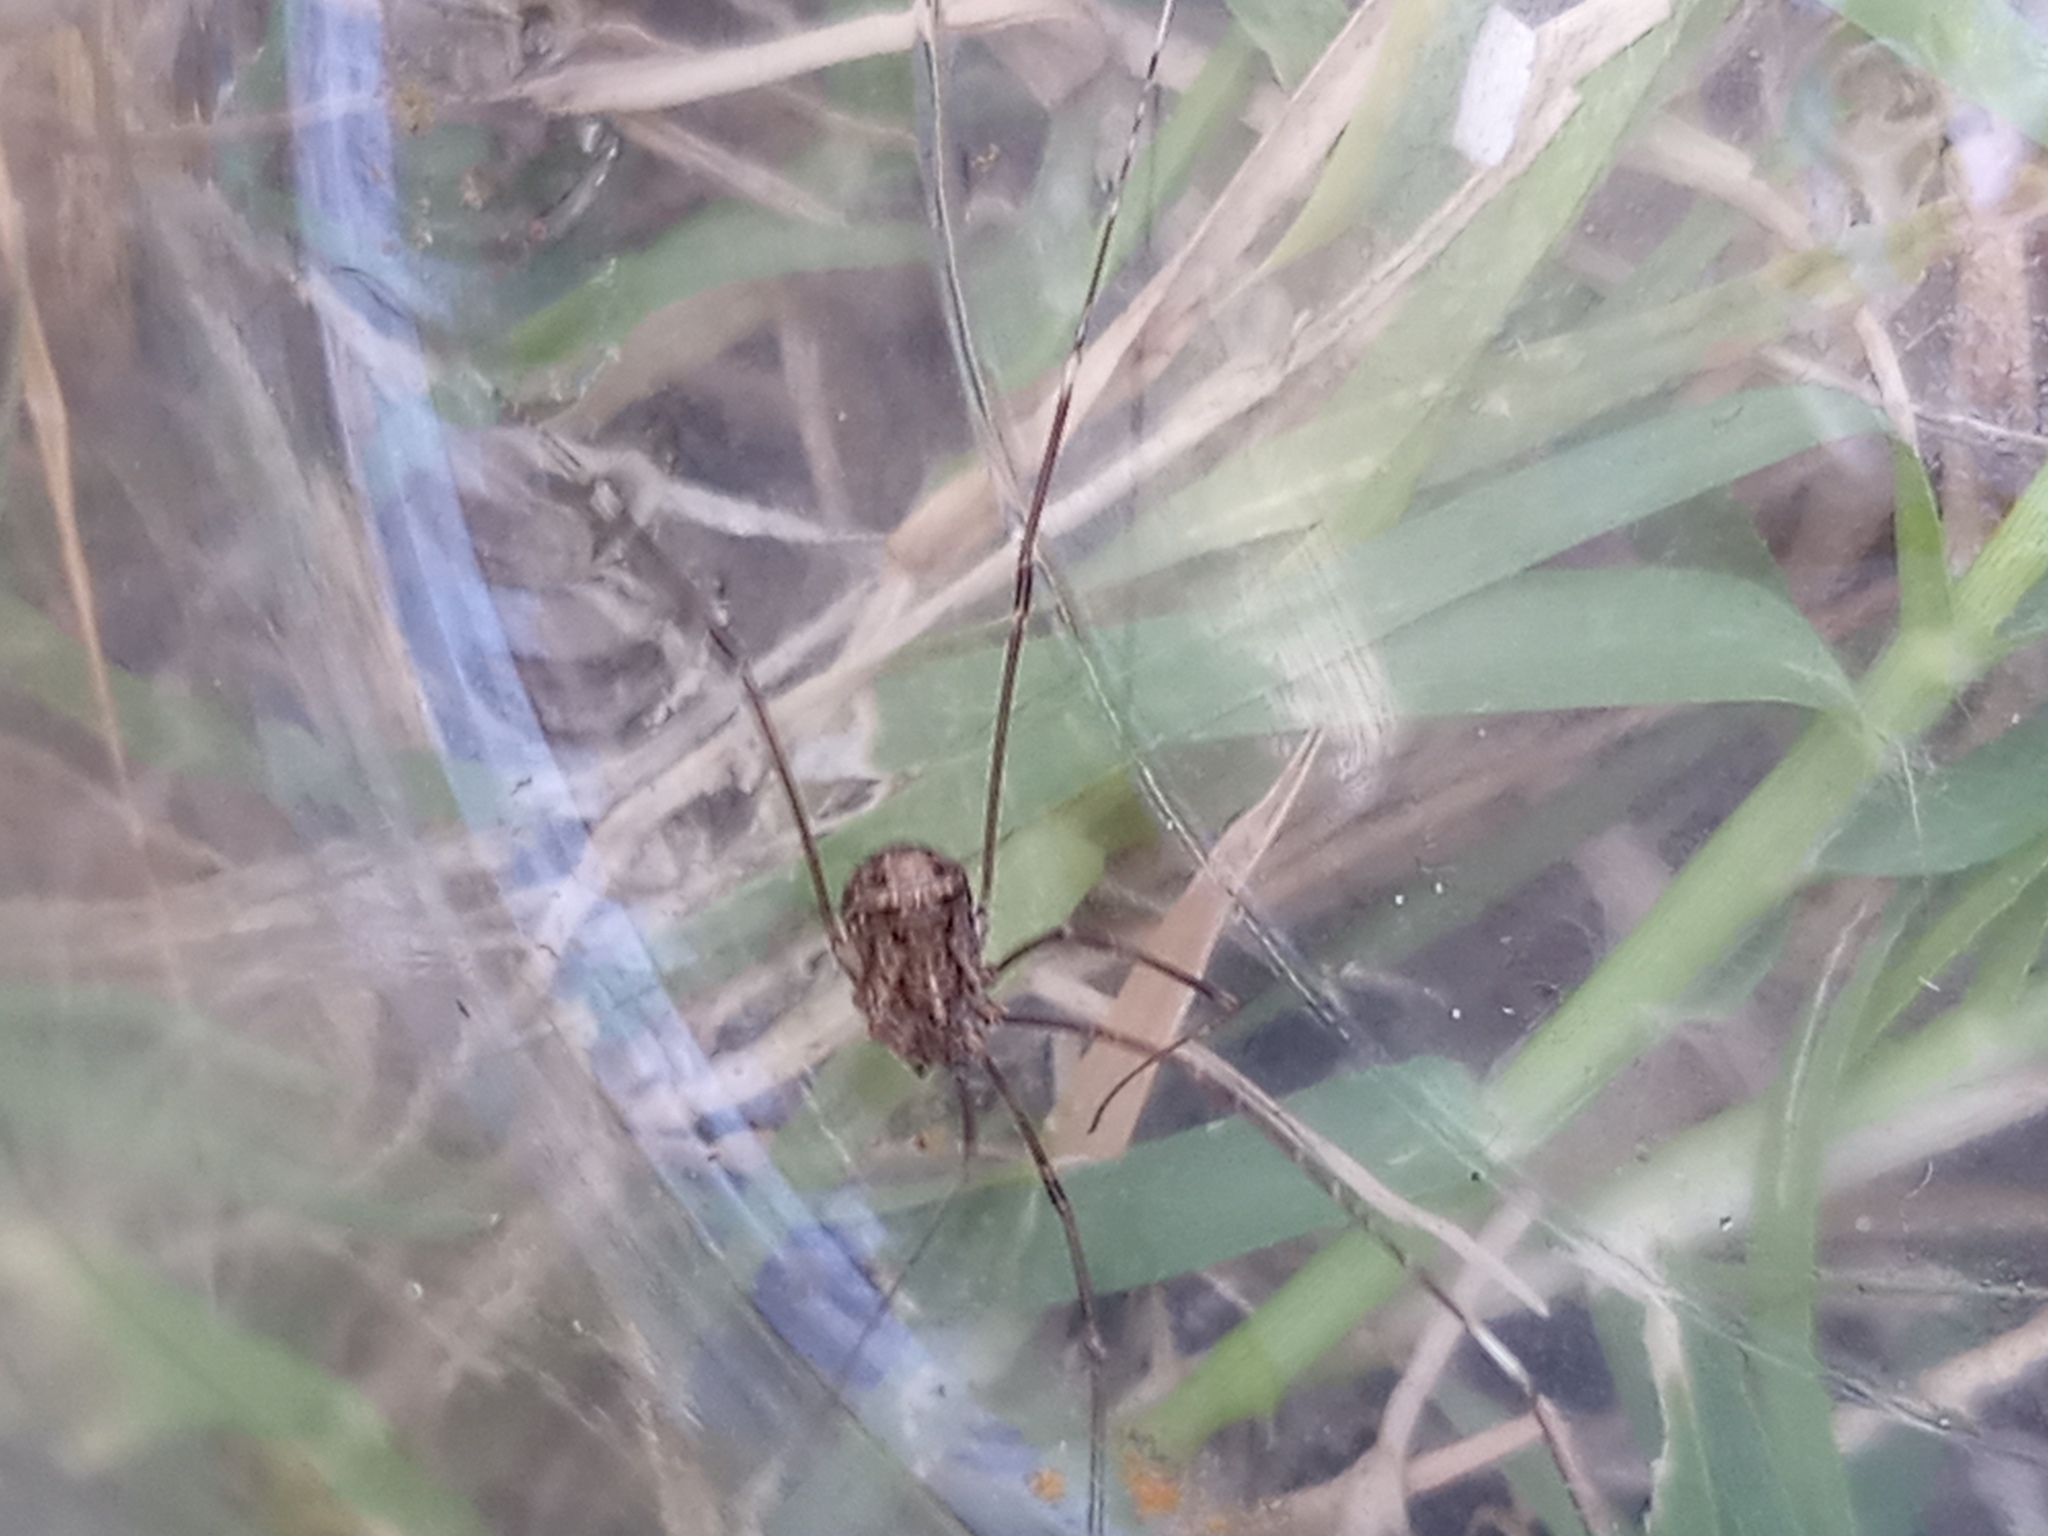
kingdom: Animalia
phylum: Arthropoda
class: Arachnida
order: Opiliones
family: Sclerosomatidae
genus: Nelima
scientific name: Nelima doriae
